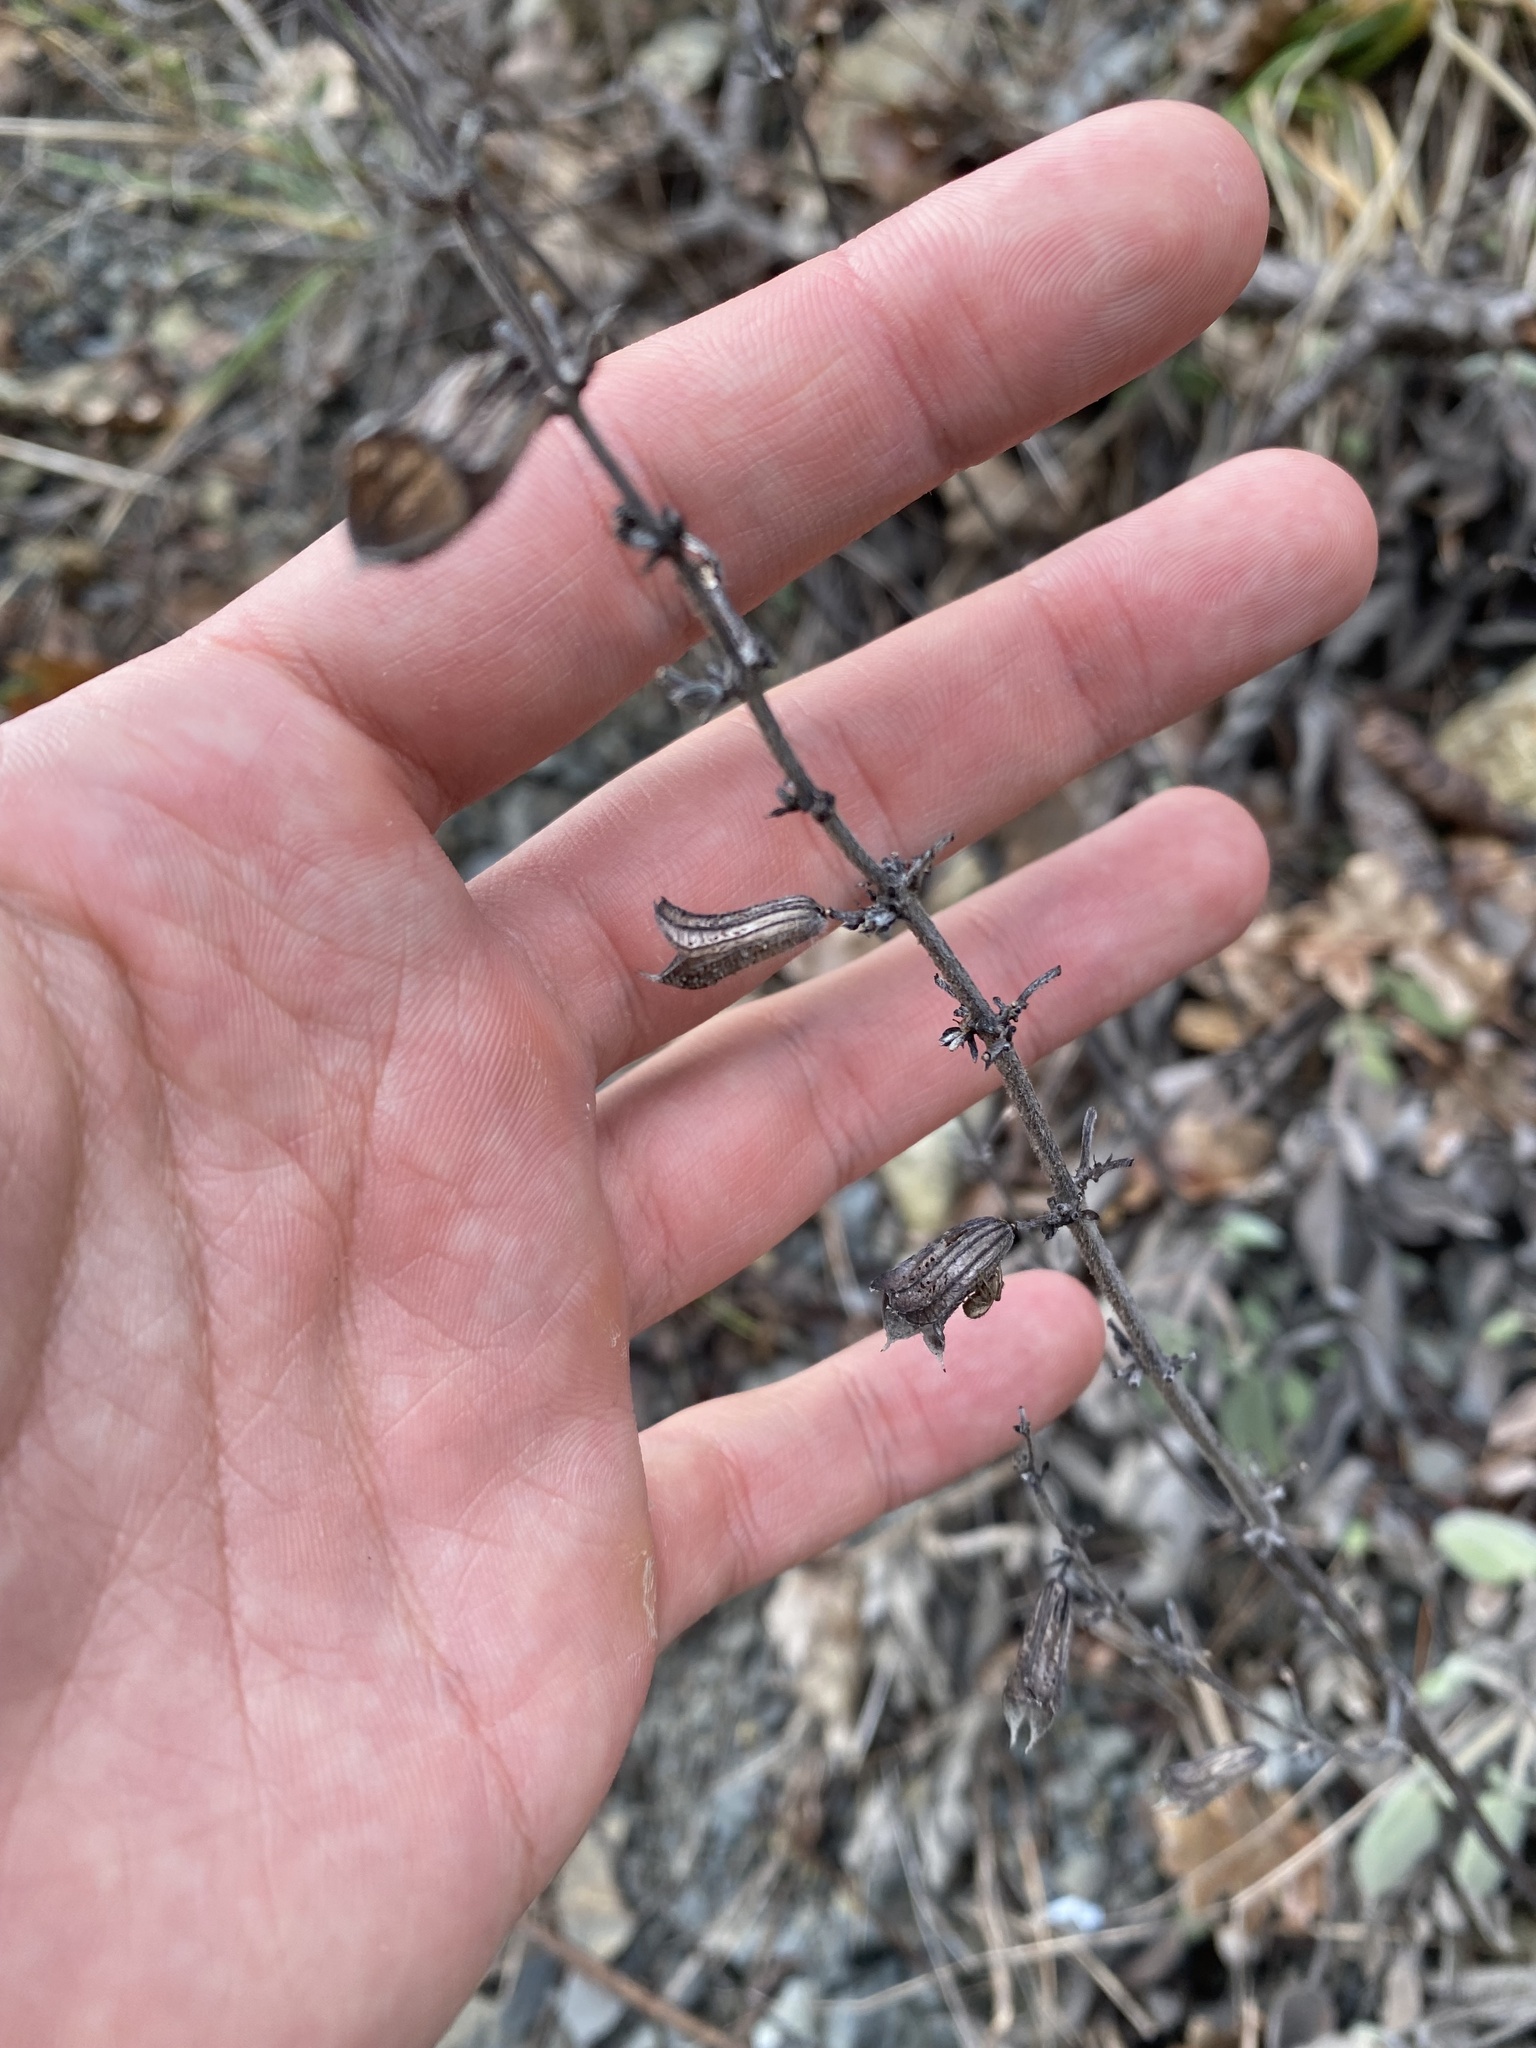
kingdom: Plantae
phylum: Tracheophyta
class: Magnoliopsida
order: Lamiales
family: Lamiaceae
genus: Salvia
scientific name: Salvia ringens
